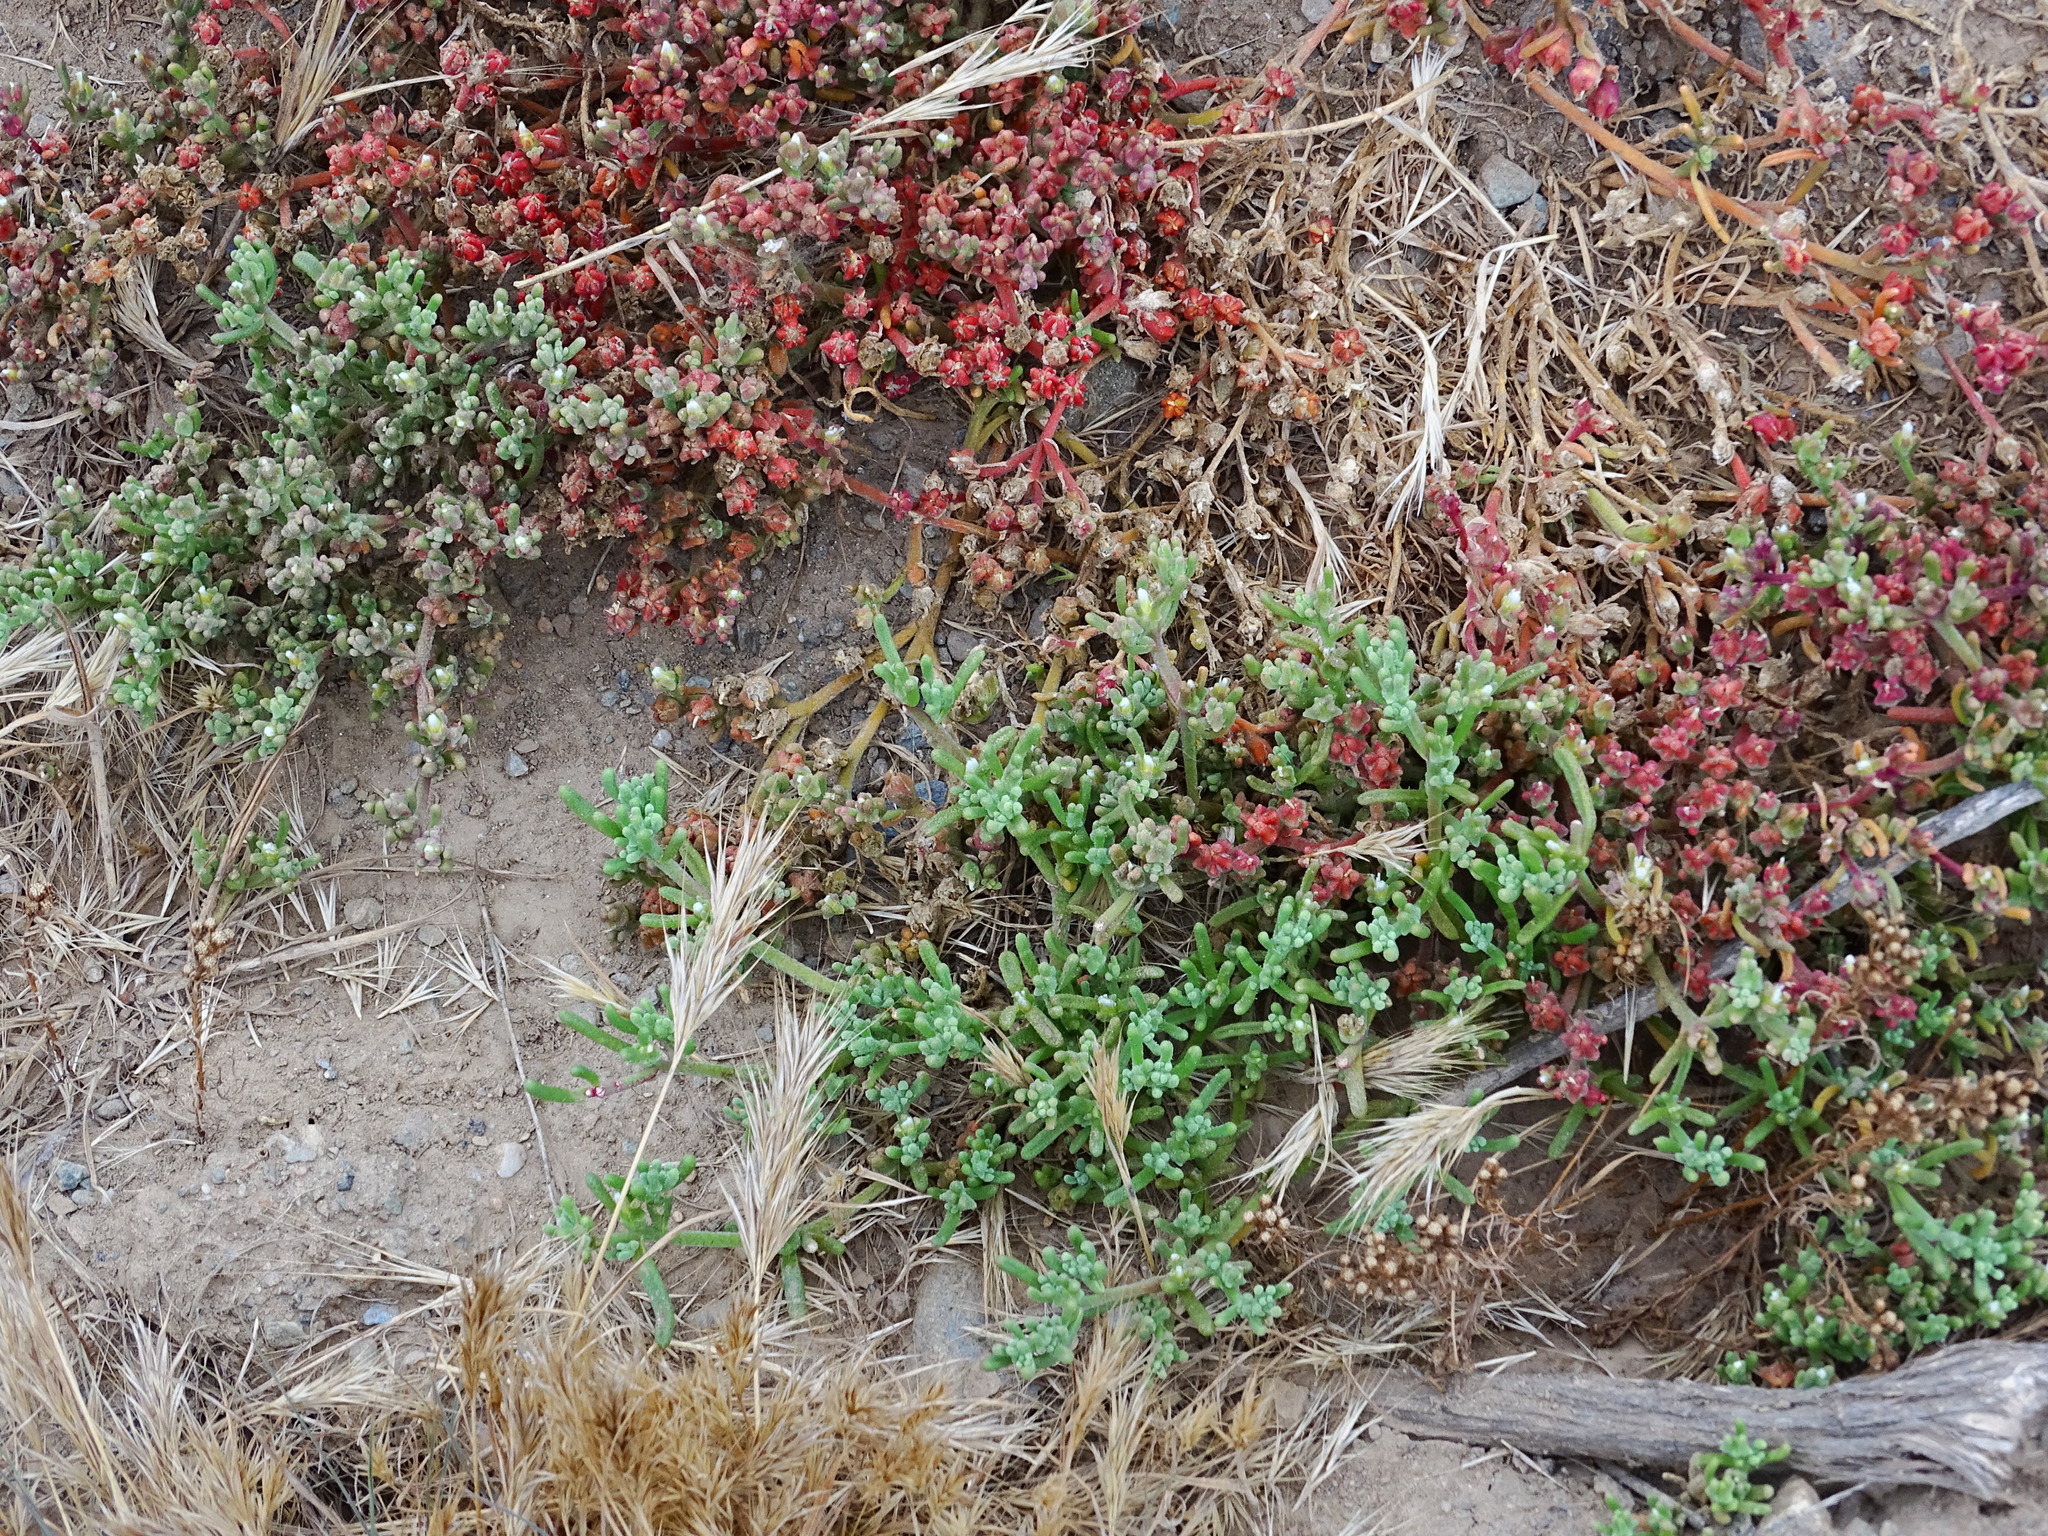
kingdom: Plantae
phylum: Tracheophyta
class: Magnoliopsida
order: Caryophyllales
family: Aizoaceae
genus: Mesembryanthemum
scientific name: Mesembryanthemum nodiflorum
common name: Slenderleaf iceplant
